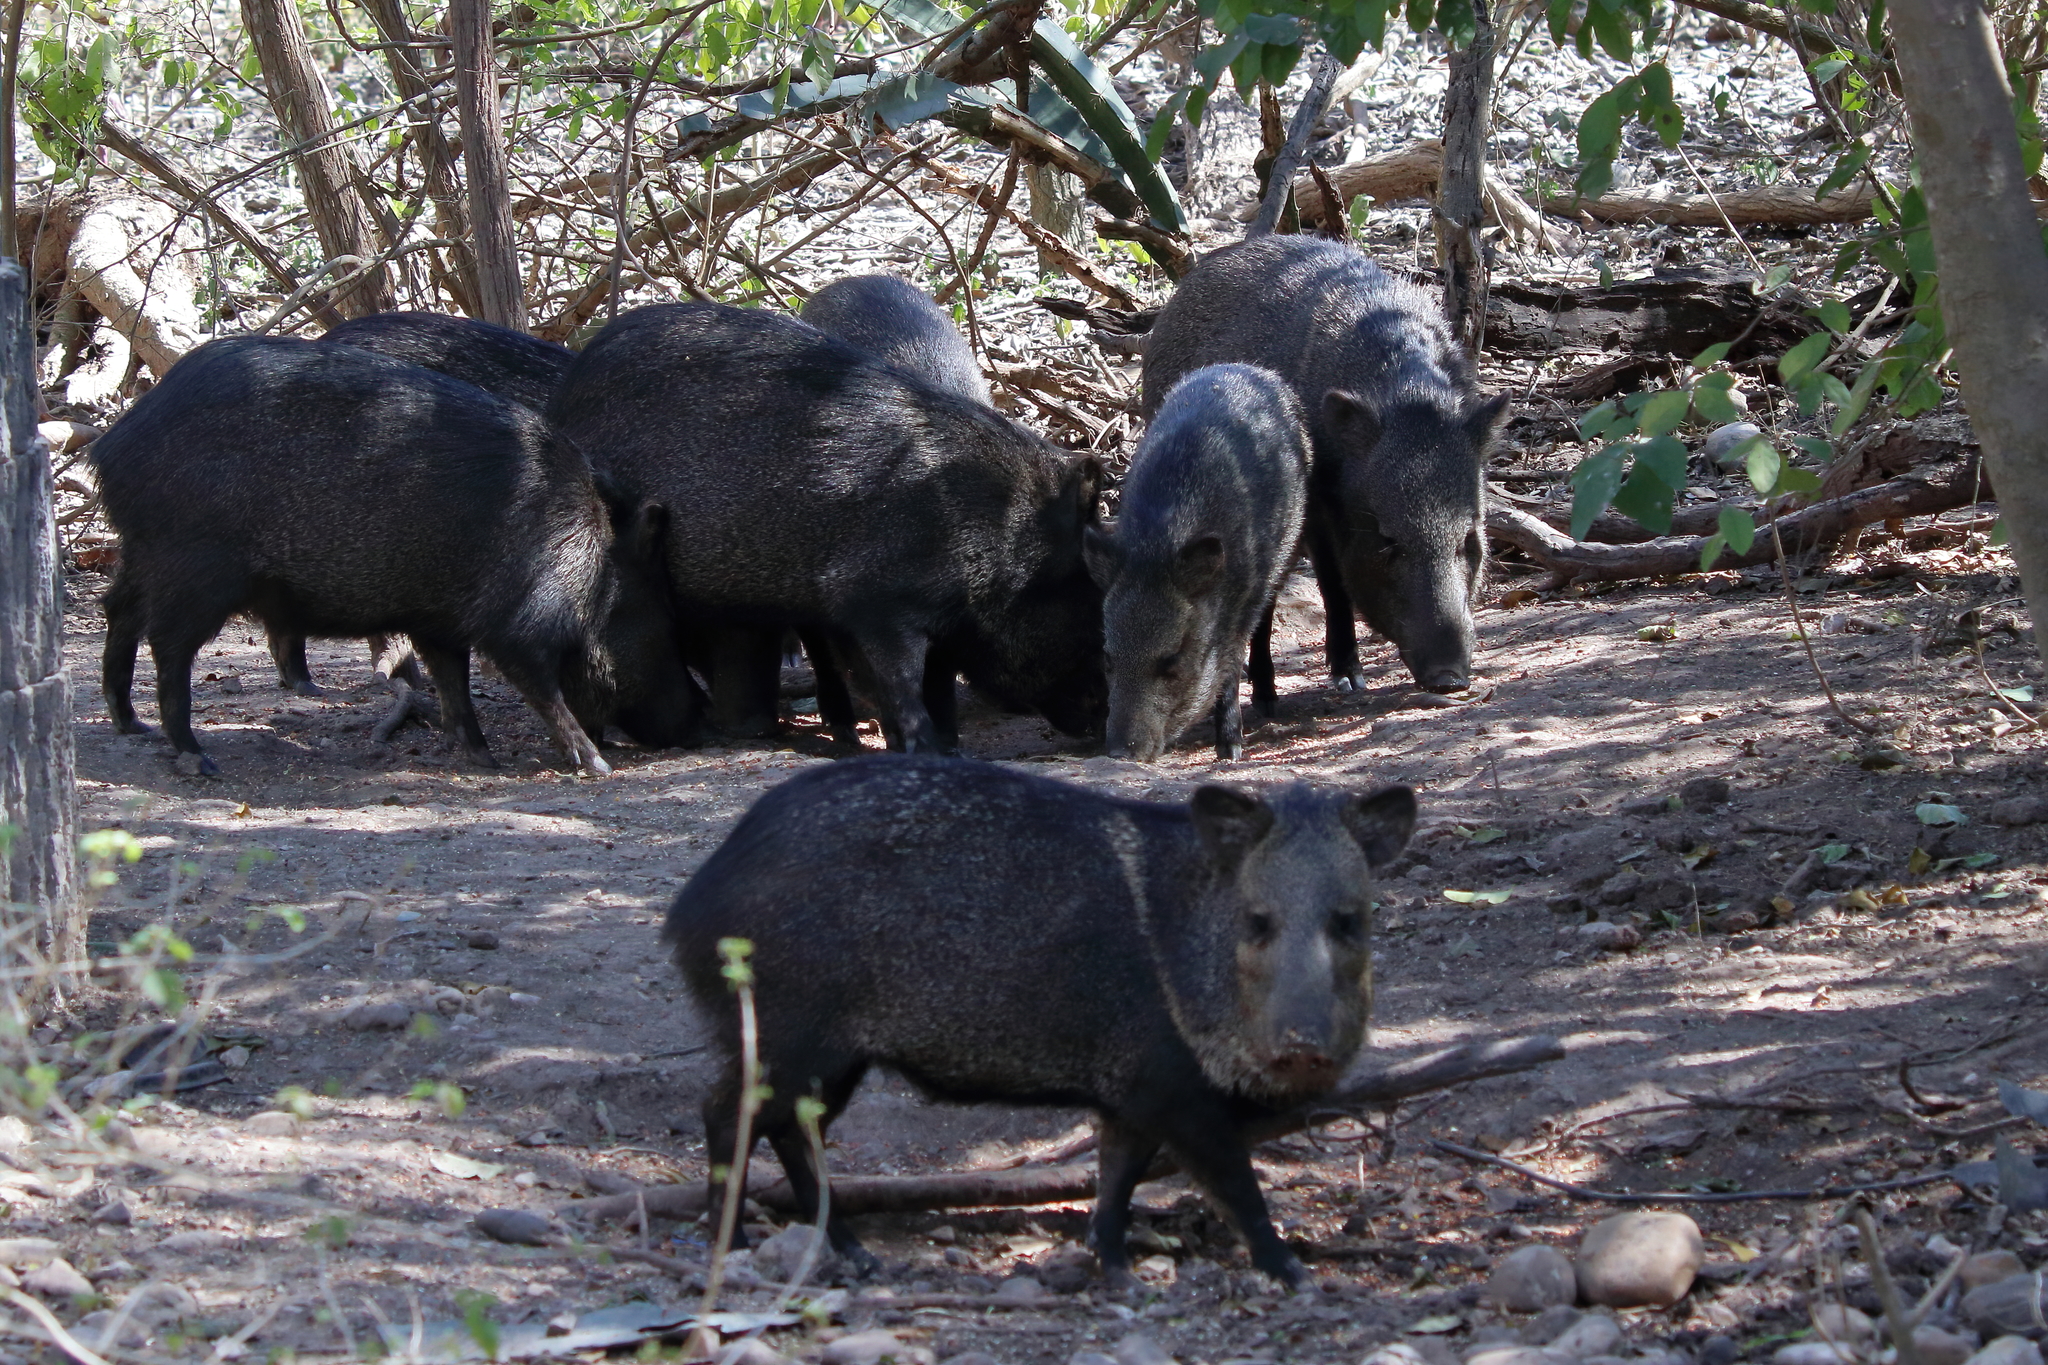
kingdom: Animalia
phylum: Chordata
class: Mammalia
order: Artiodactyla
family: Tayassuidae
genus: Pecari
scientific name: Pecari tajacu
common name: Collared peccary
